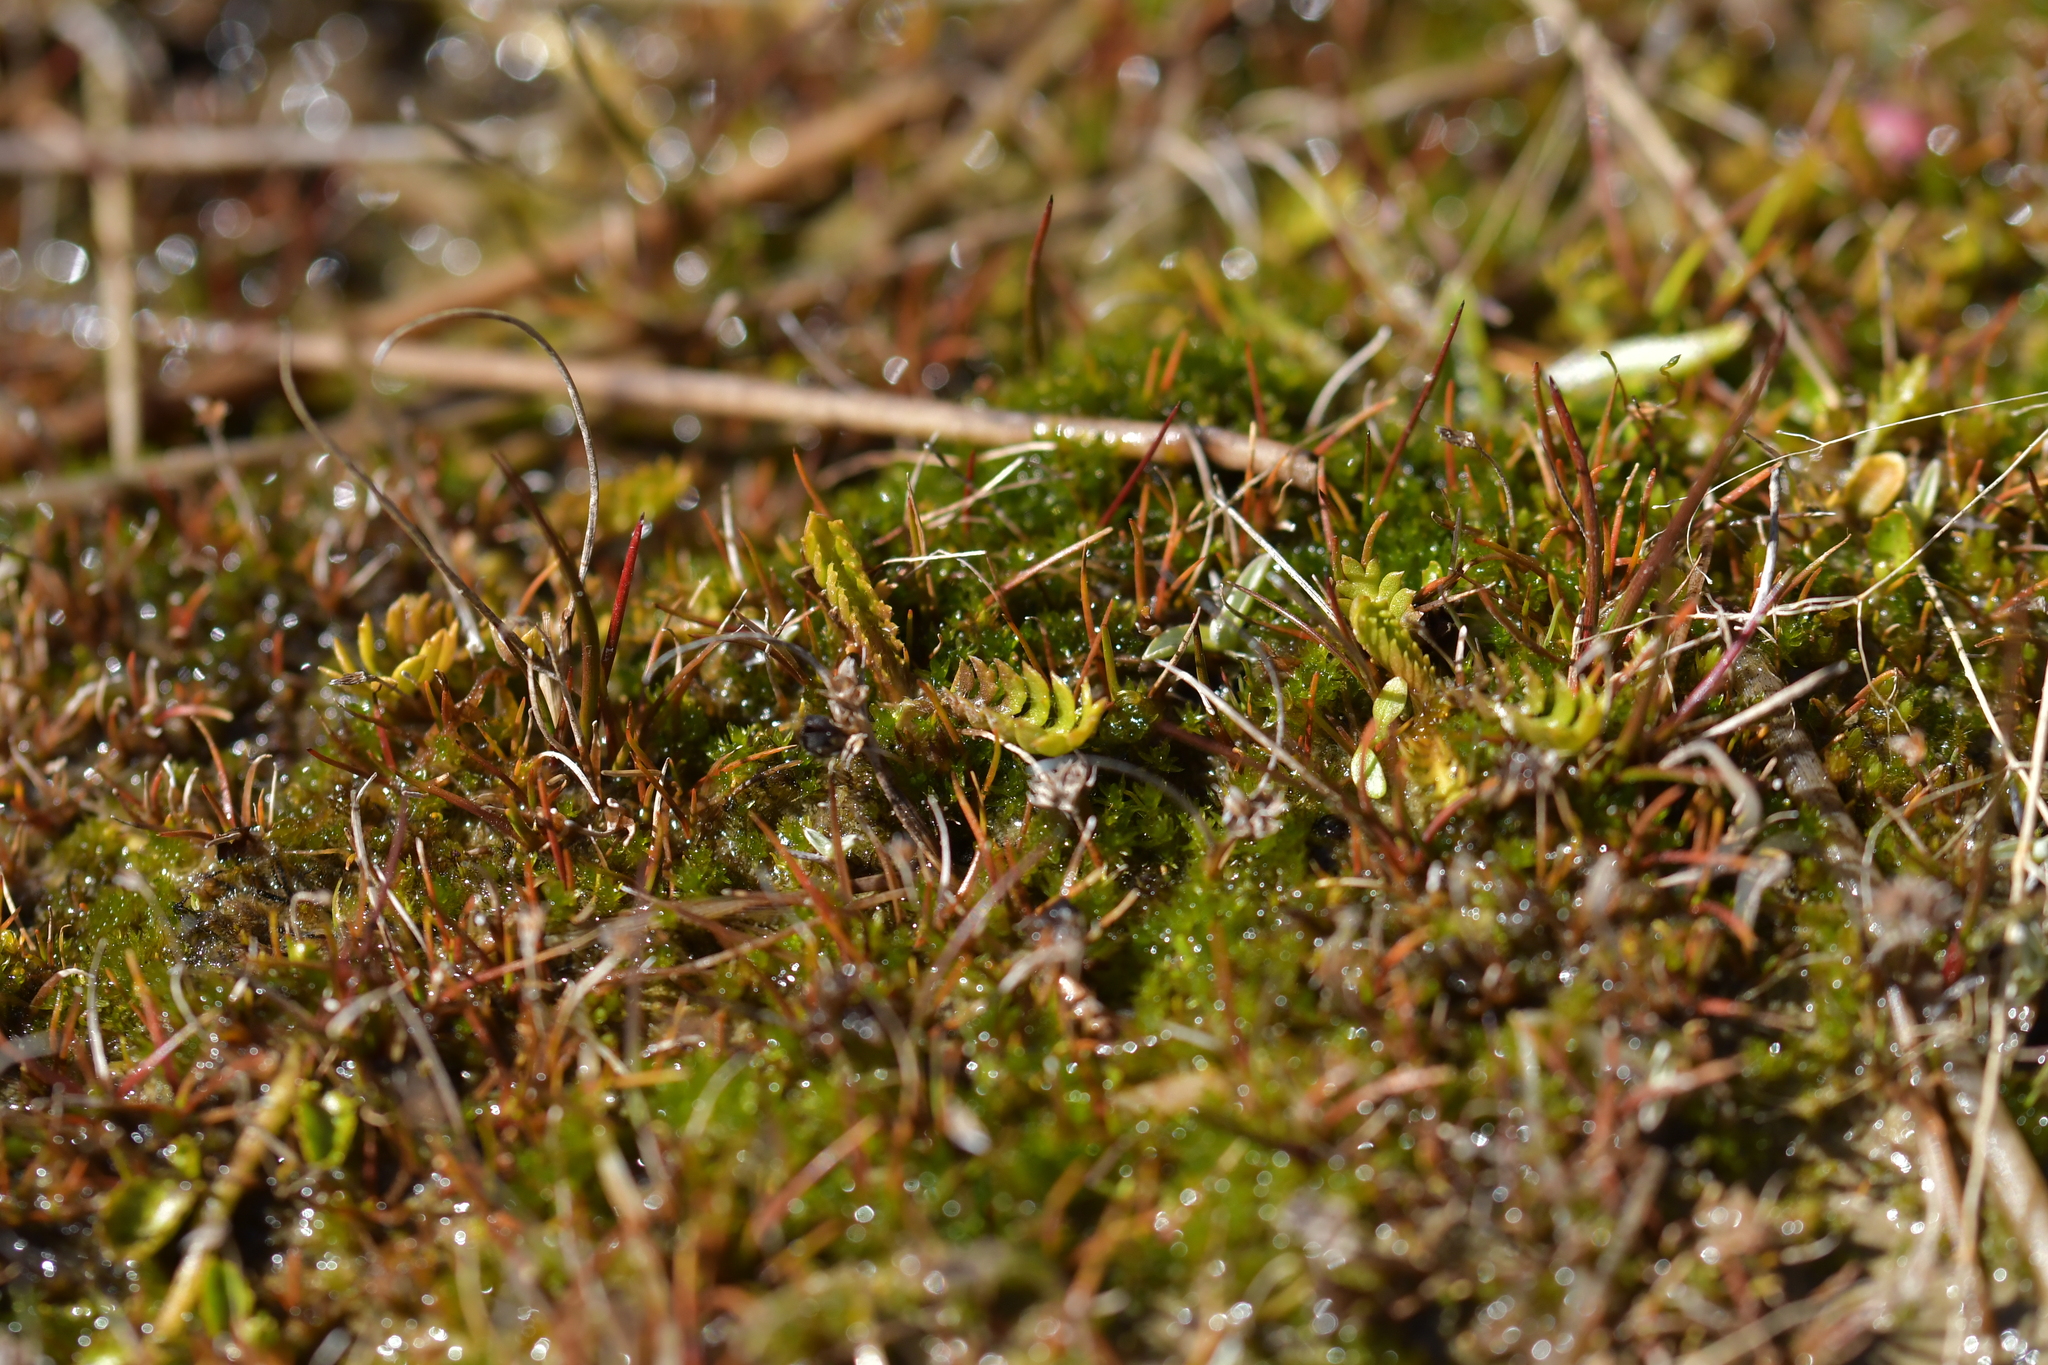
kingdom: Plantae
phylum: Tracheophyta
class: Magnoliopsida
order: Ranunculales
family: Ranunculaceae
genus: Ranunculus
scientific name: Ranunculus gracilipes
